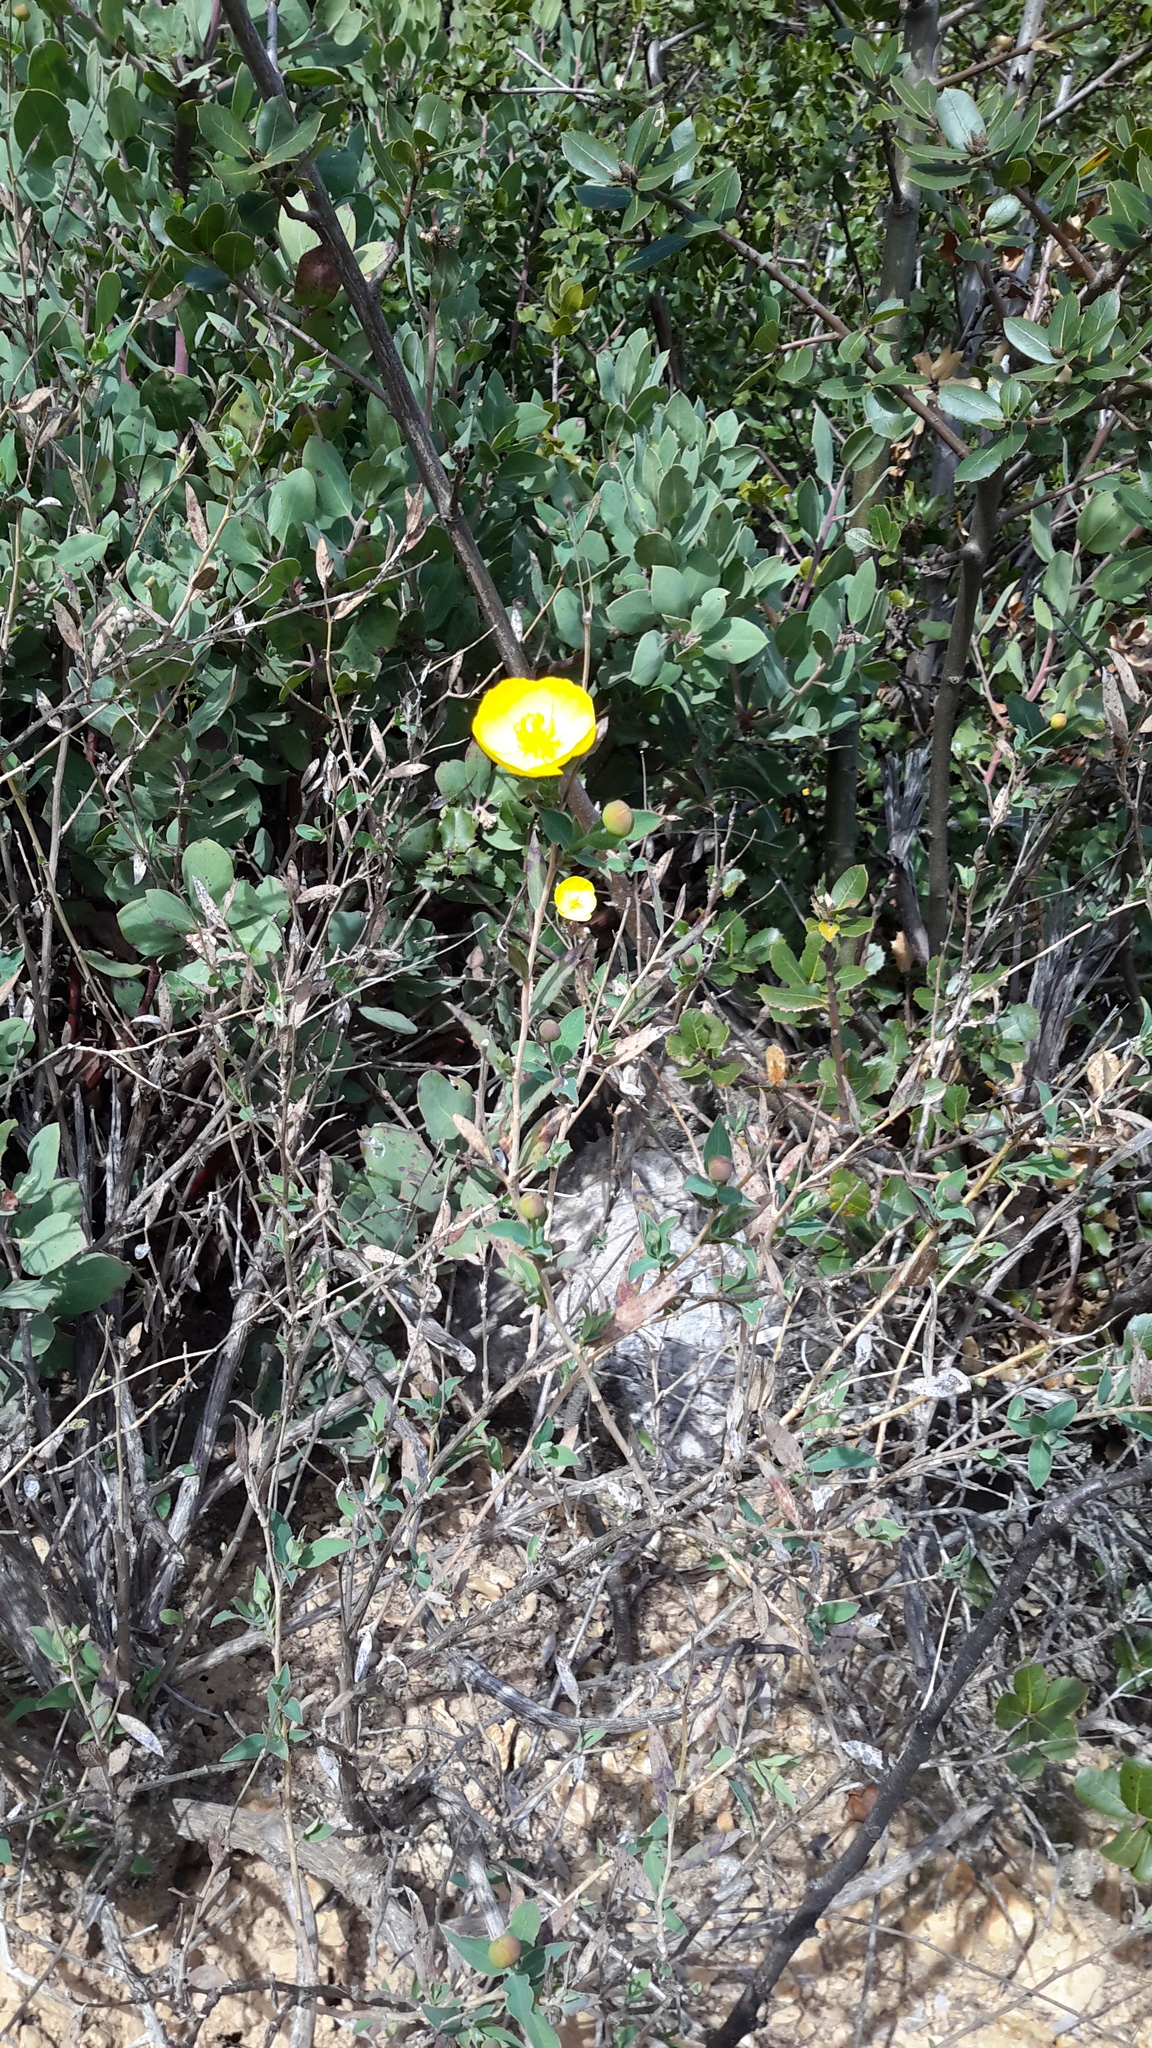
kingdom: Plantae
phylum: Tracheophyta
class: Magnoliopsida
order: Ranunculales
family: Papaveraceae
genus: Dendromecon
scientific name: Dendromecon rigida
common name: Tree poppy
